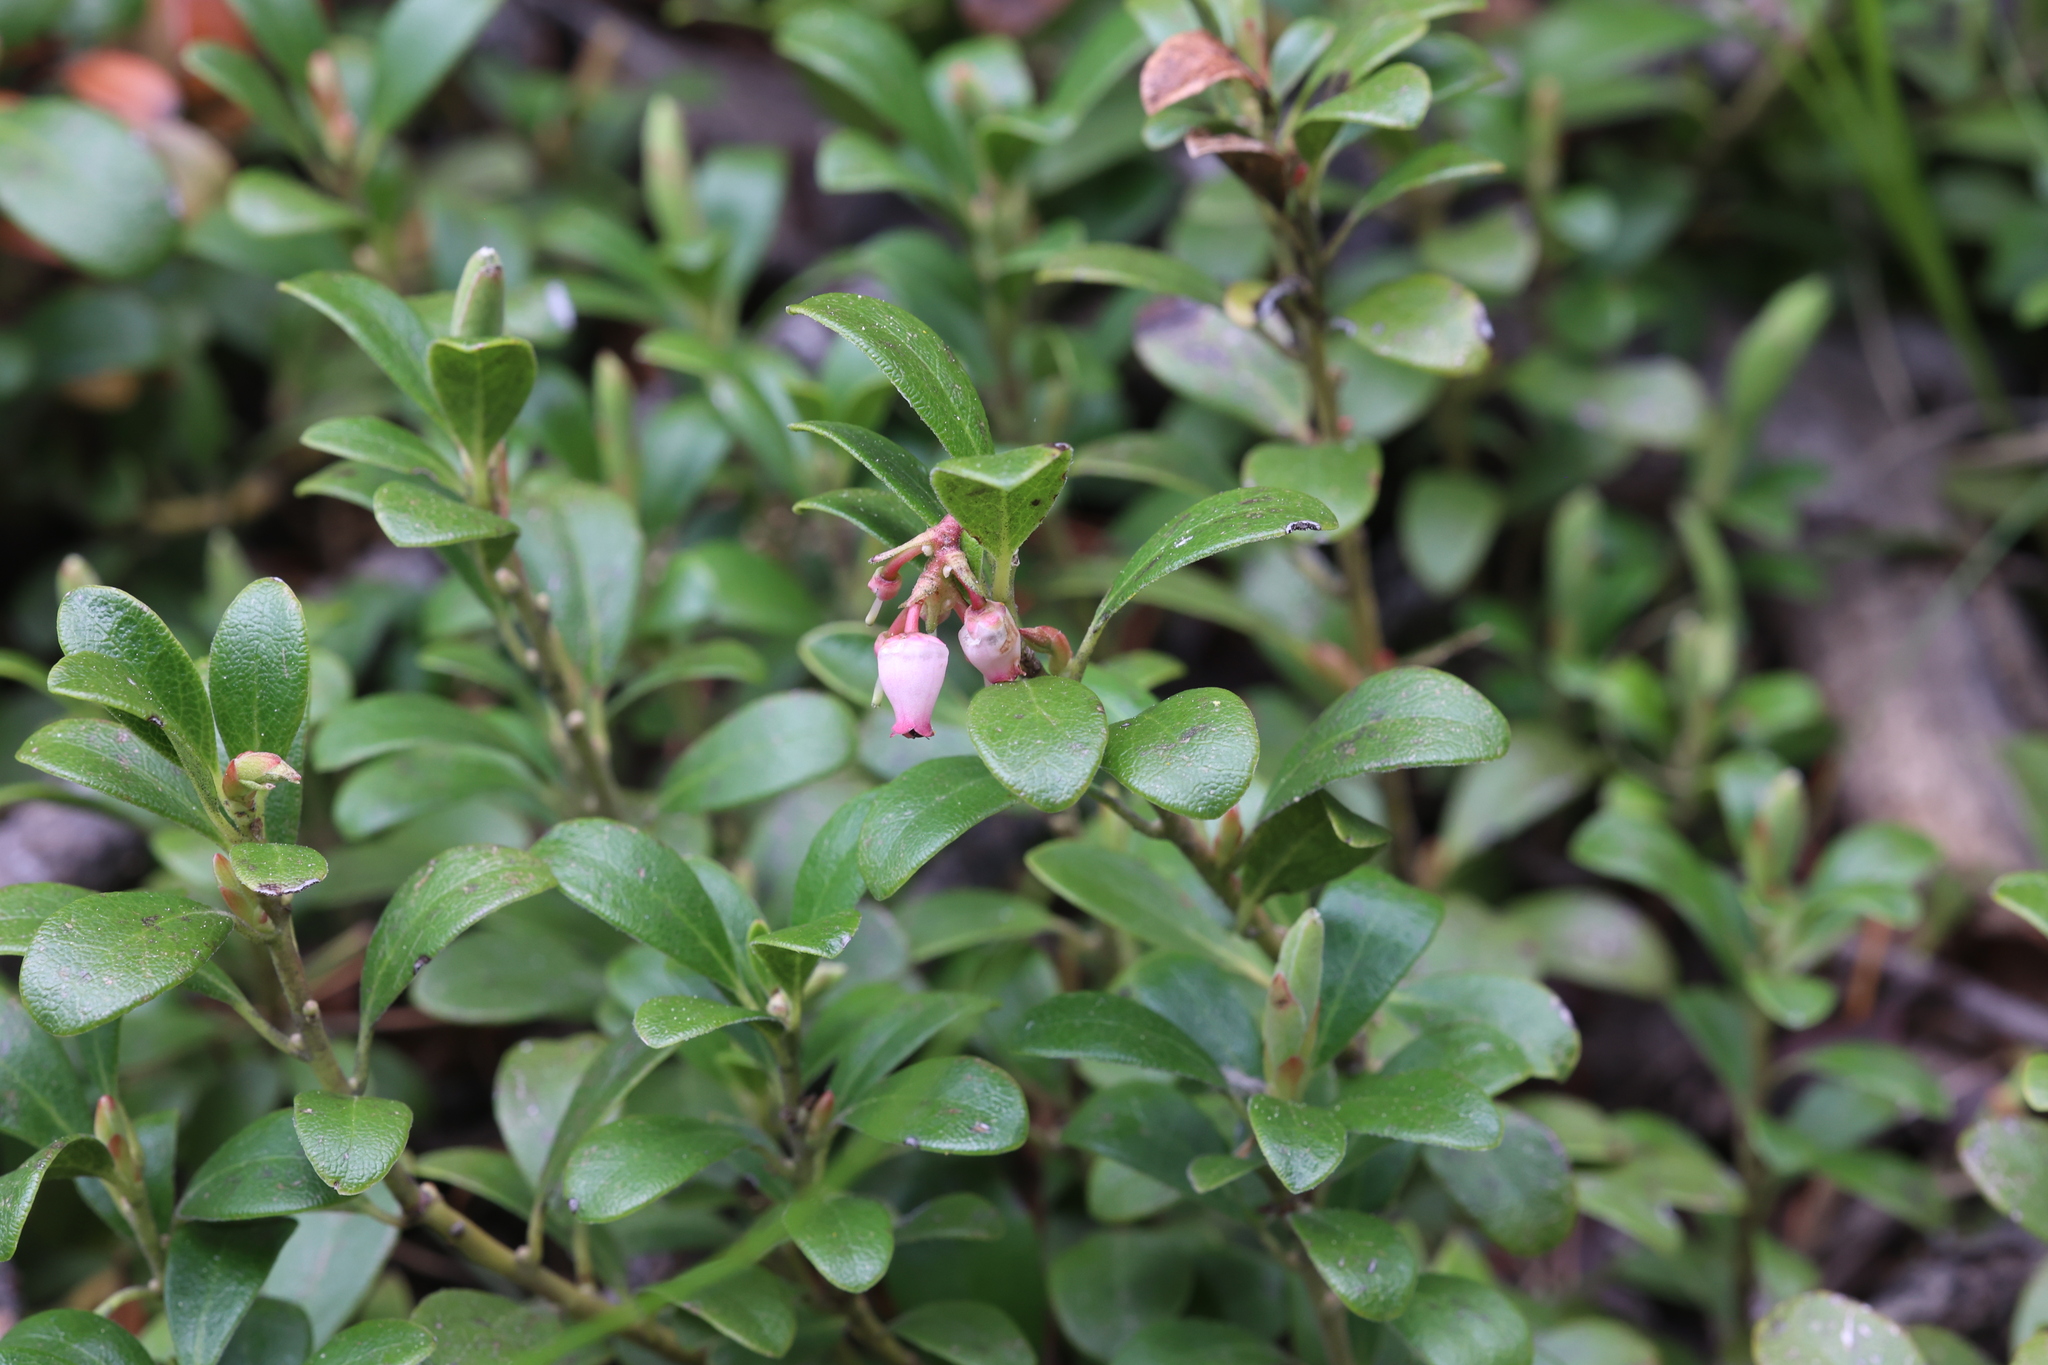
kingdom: Plantae
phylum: Tracheophyta
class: Magnoliopsida
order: Ericales
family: Ericaceae
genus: Arctostaphylos
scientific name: Arctostaphylos uva-ursi
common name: Bearberry
